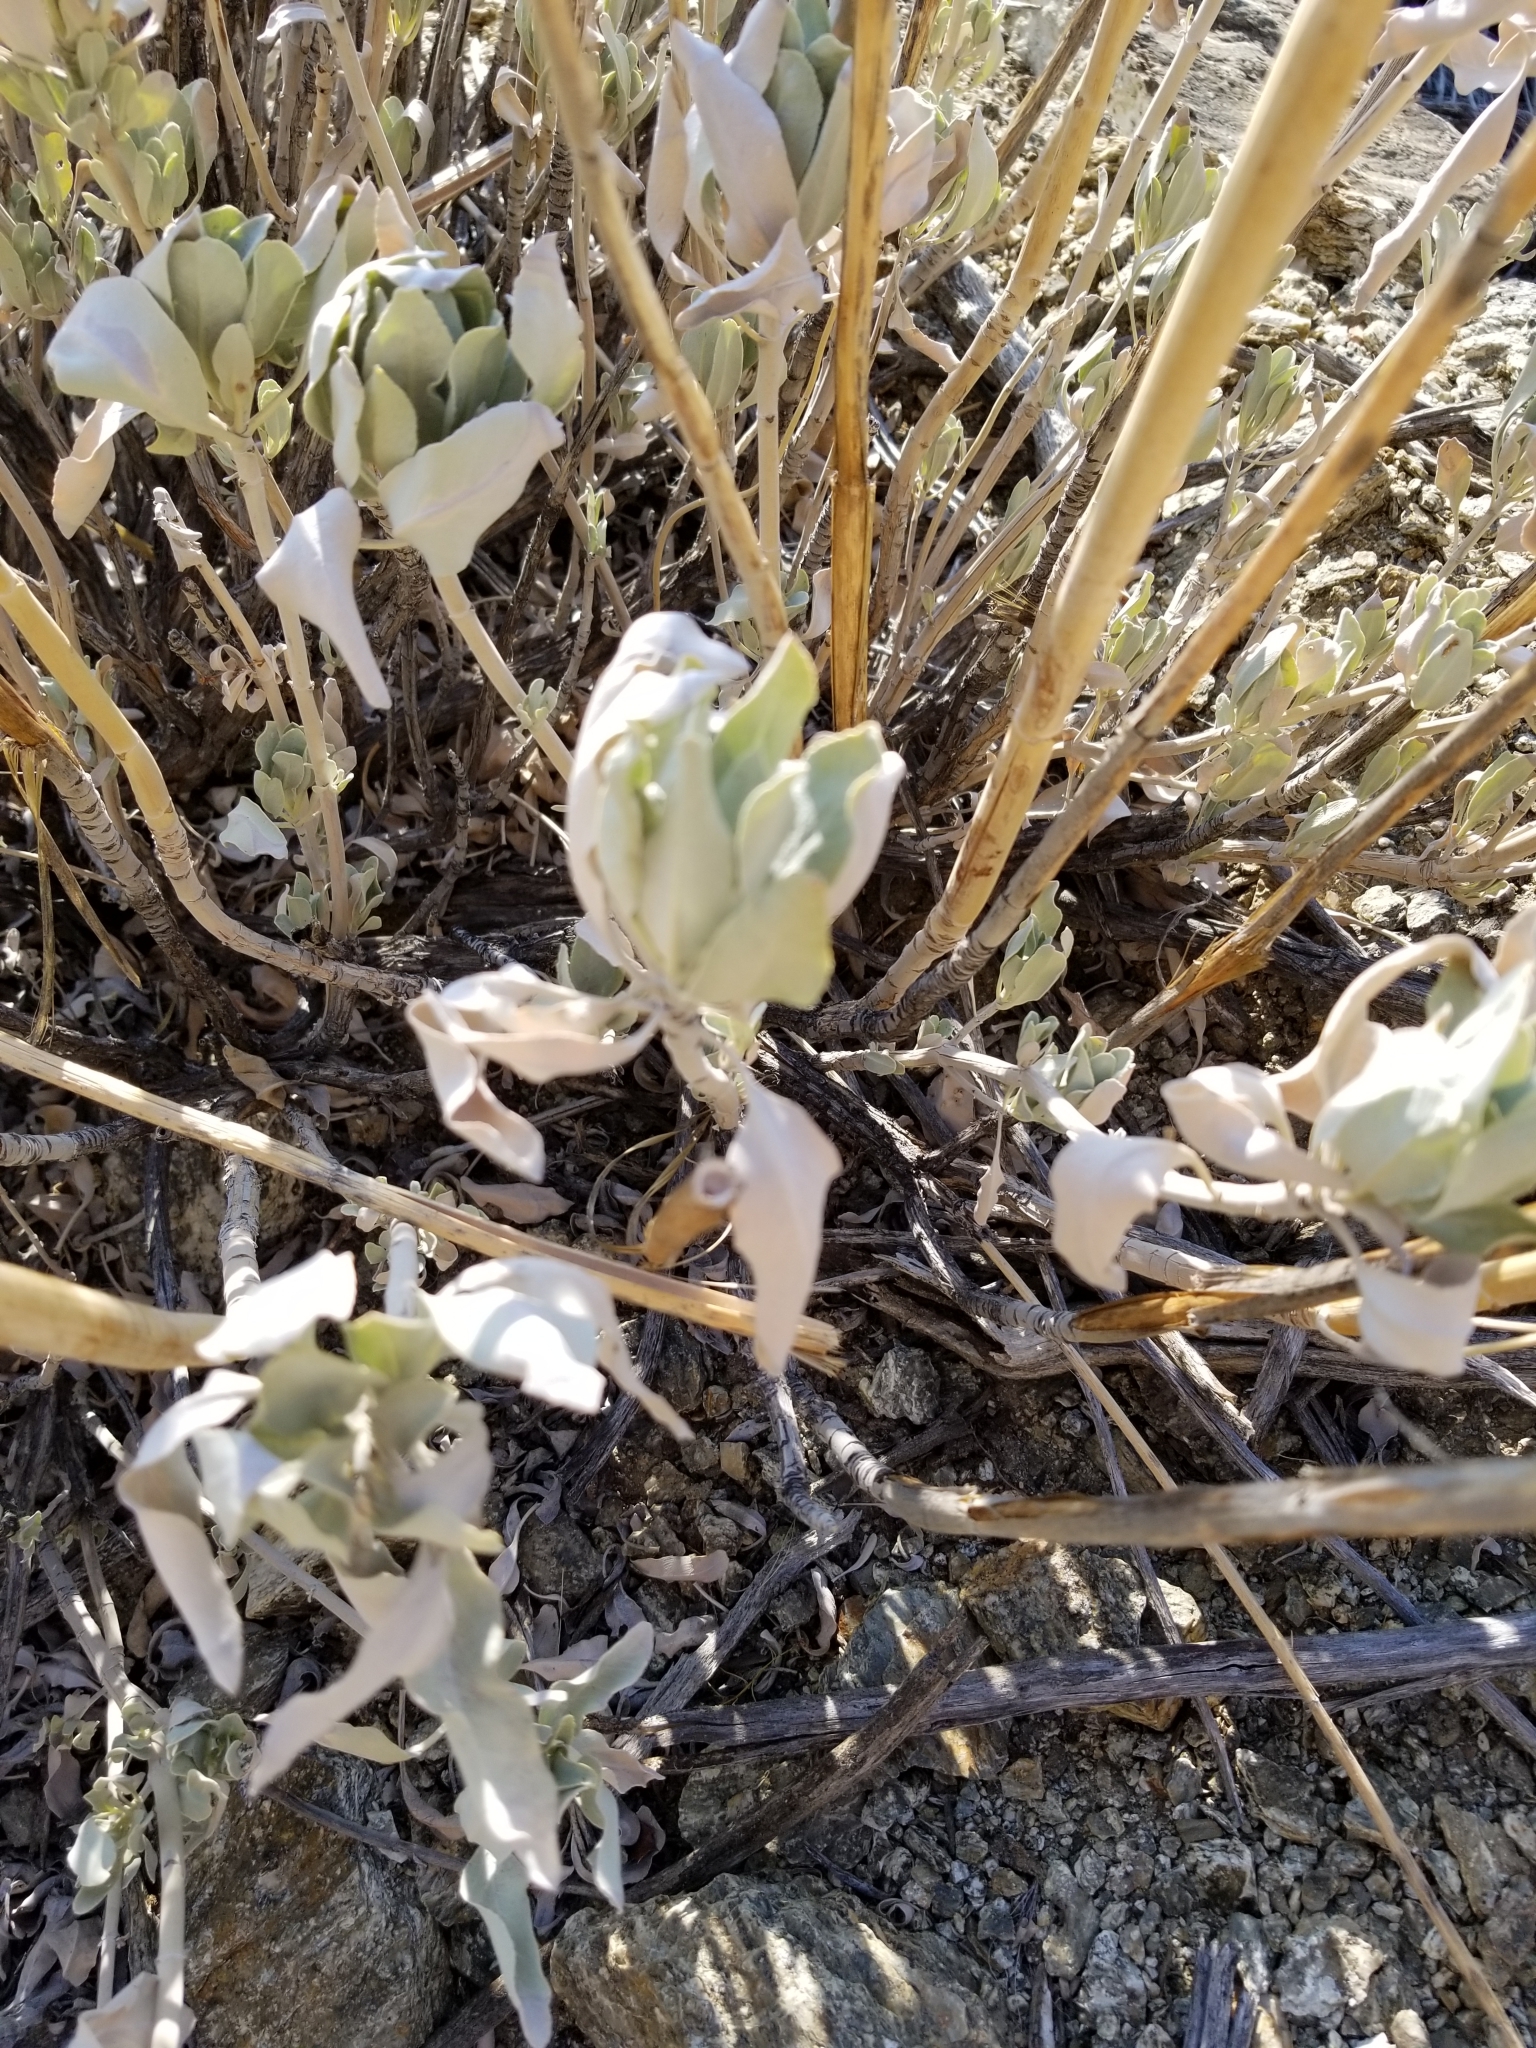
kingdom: Plantae
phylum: Tracheophyta
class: Magnoliopsida
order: Lamiales
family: Lamiaceae
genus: Salvia
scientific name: Salvia apiana
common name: White sage
